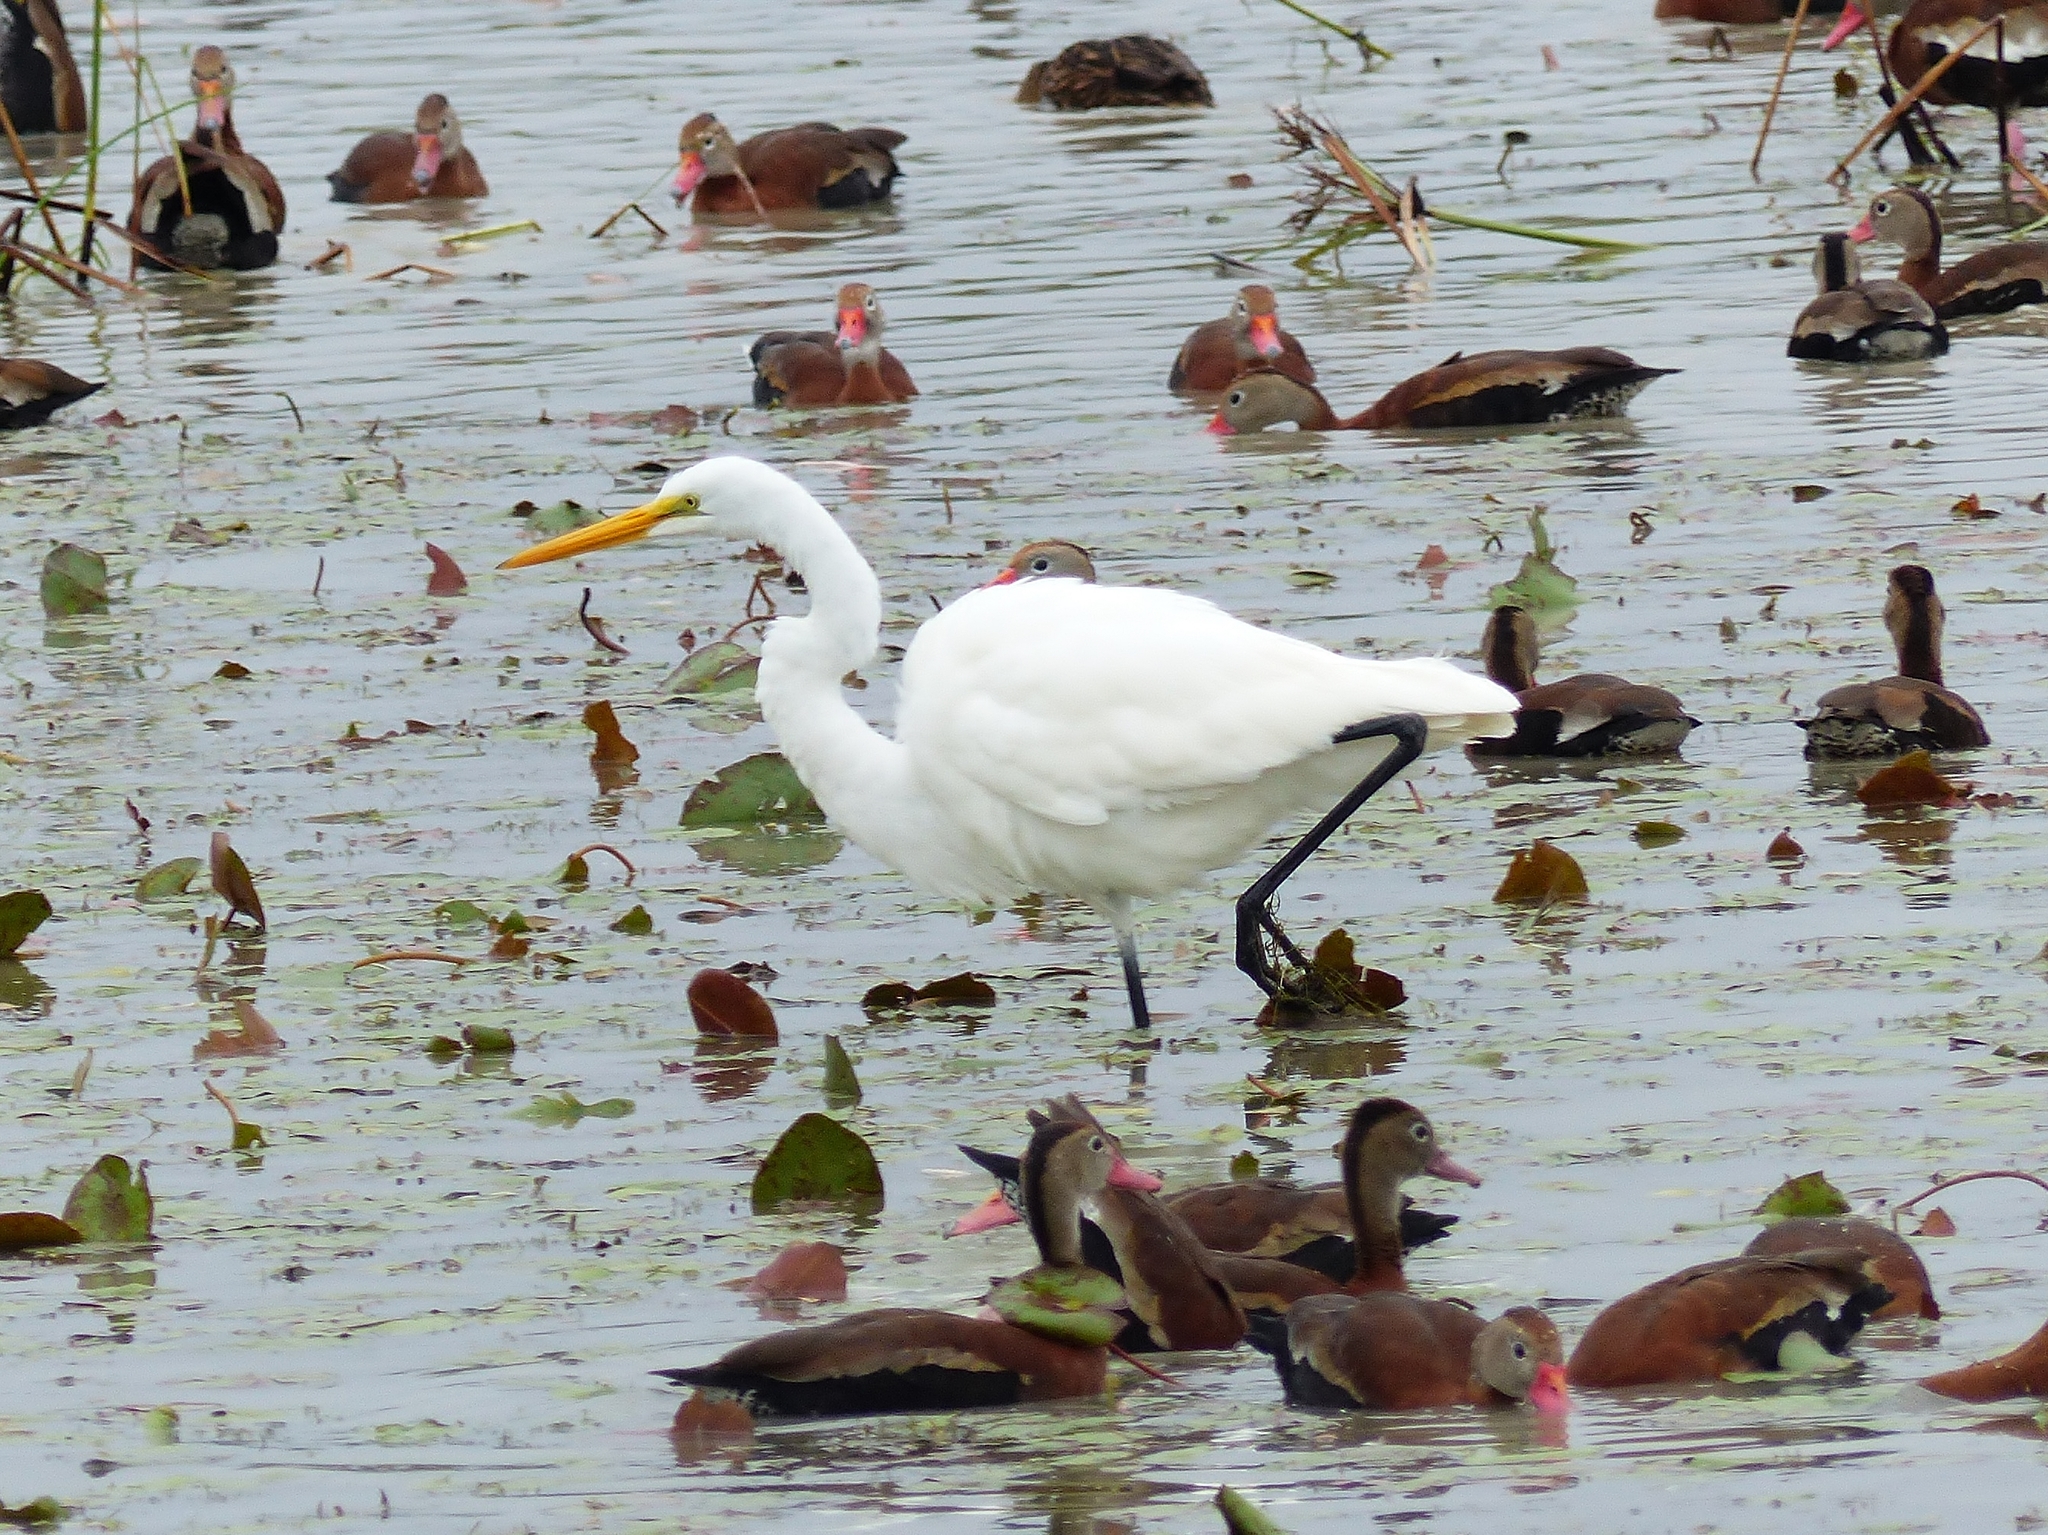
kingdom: Animalia
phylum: Chordata
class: Aves
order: Pelecaniformes
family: Ardeidae
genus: Ardea
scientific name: Ardea alba
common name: Great egret
